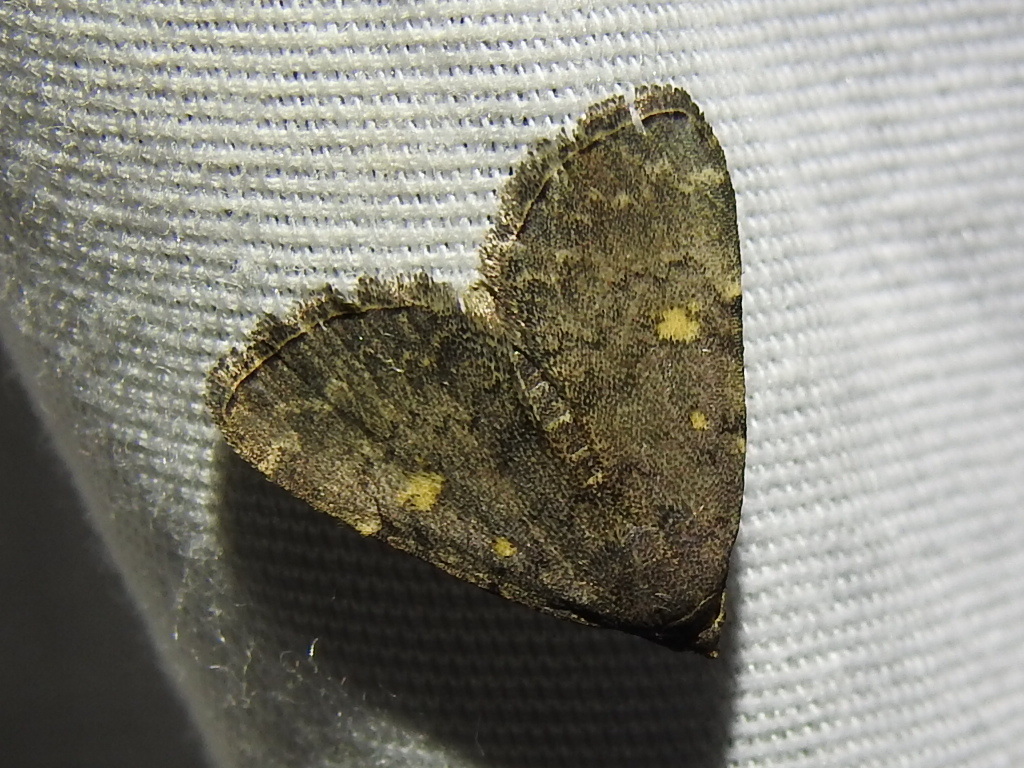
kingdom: Animalia
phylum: Arthropoda
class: Insecta
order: Lepidoptera
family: Erebidae
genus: Idia
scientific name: Idia aemula
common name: Common idia moth
